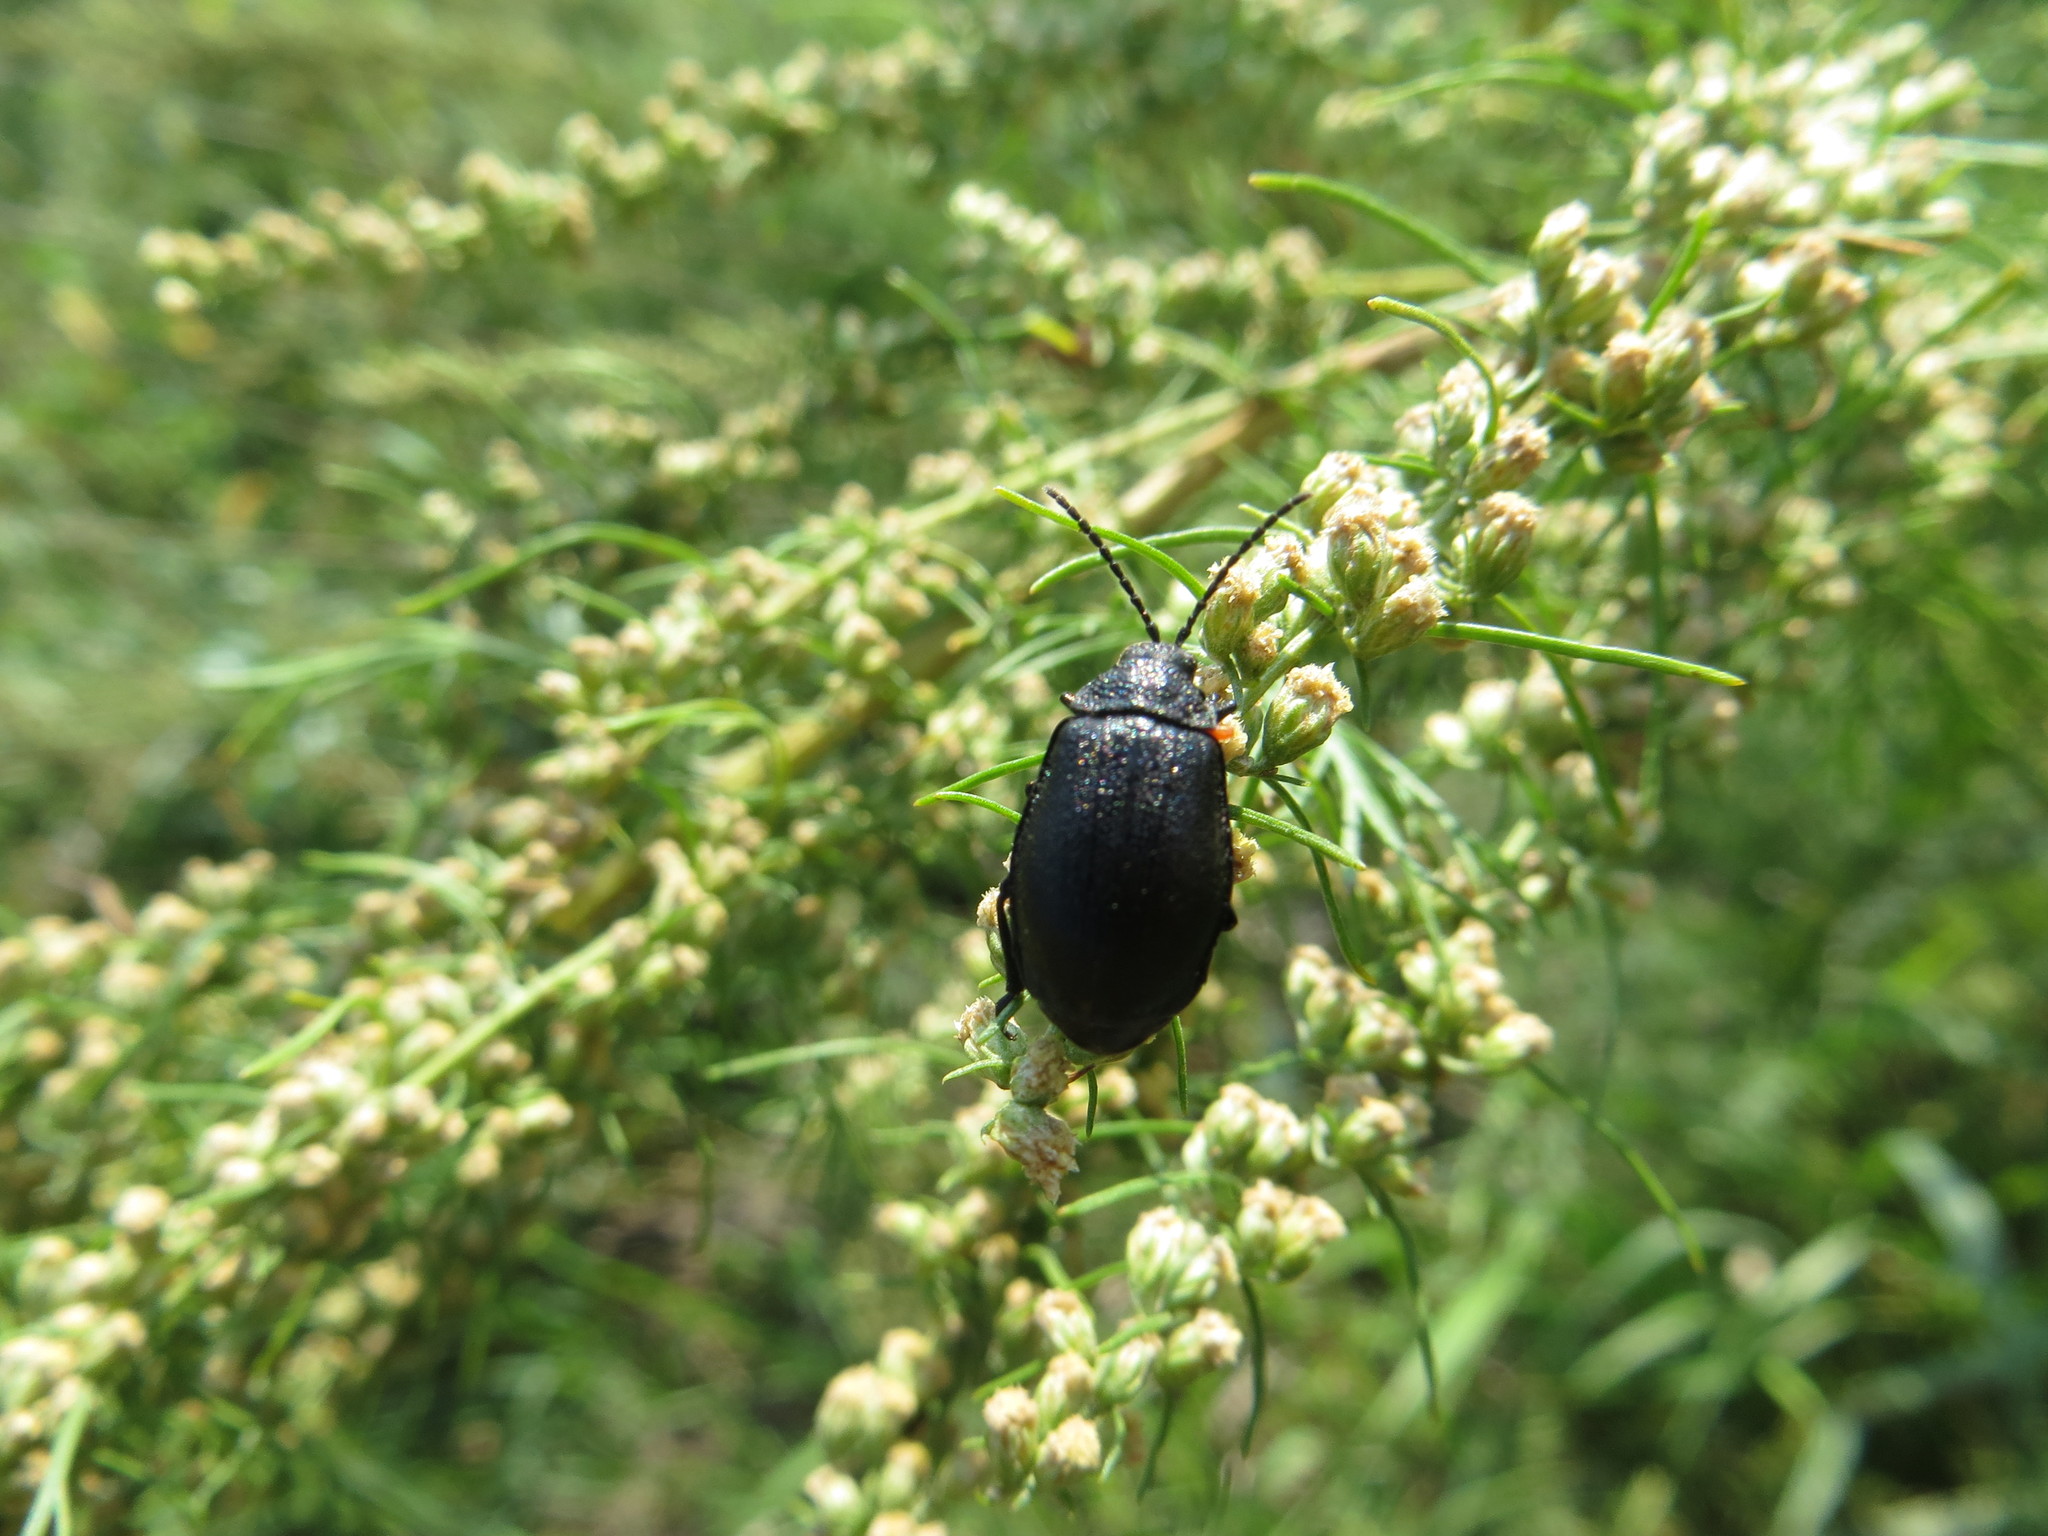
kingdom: Animalia
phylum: Arthropoda
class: Insecta
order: Coleoptera
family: Chrysomelidae
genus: Galeruca
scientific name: Galeruca tanaceti
